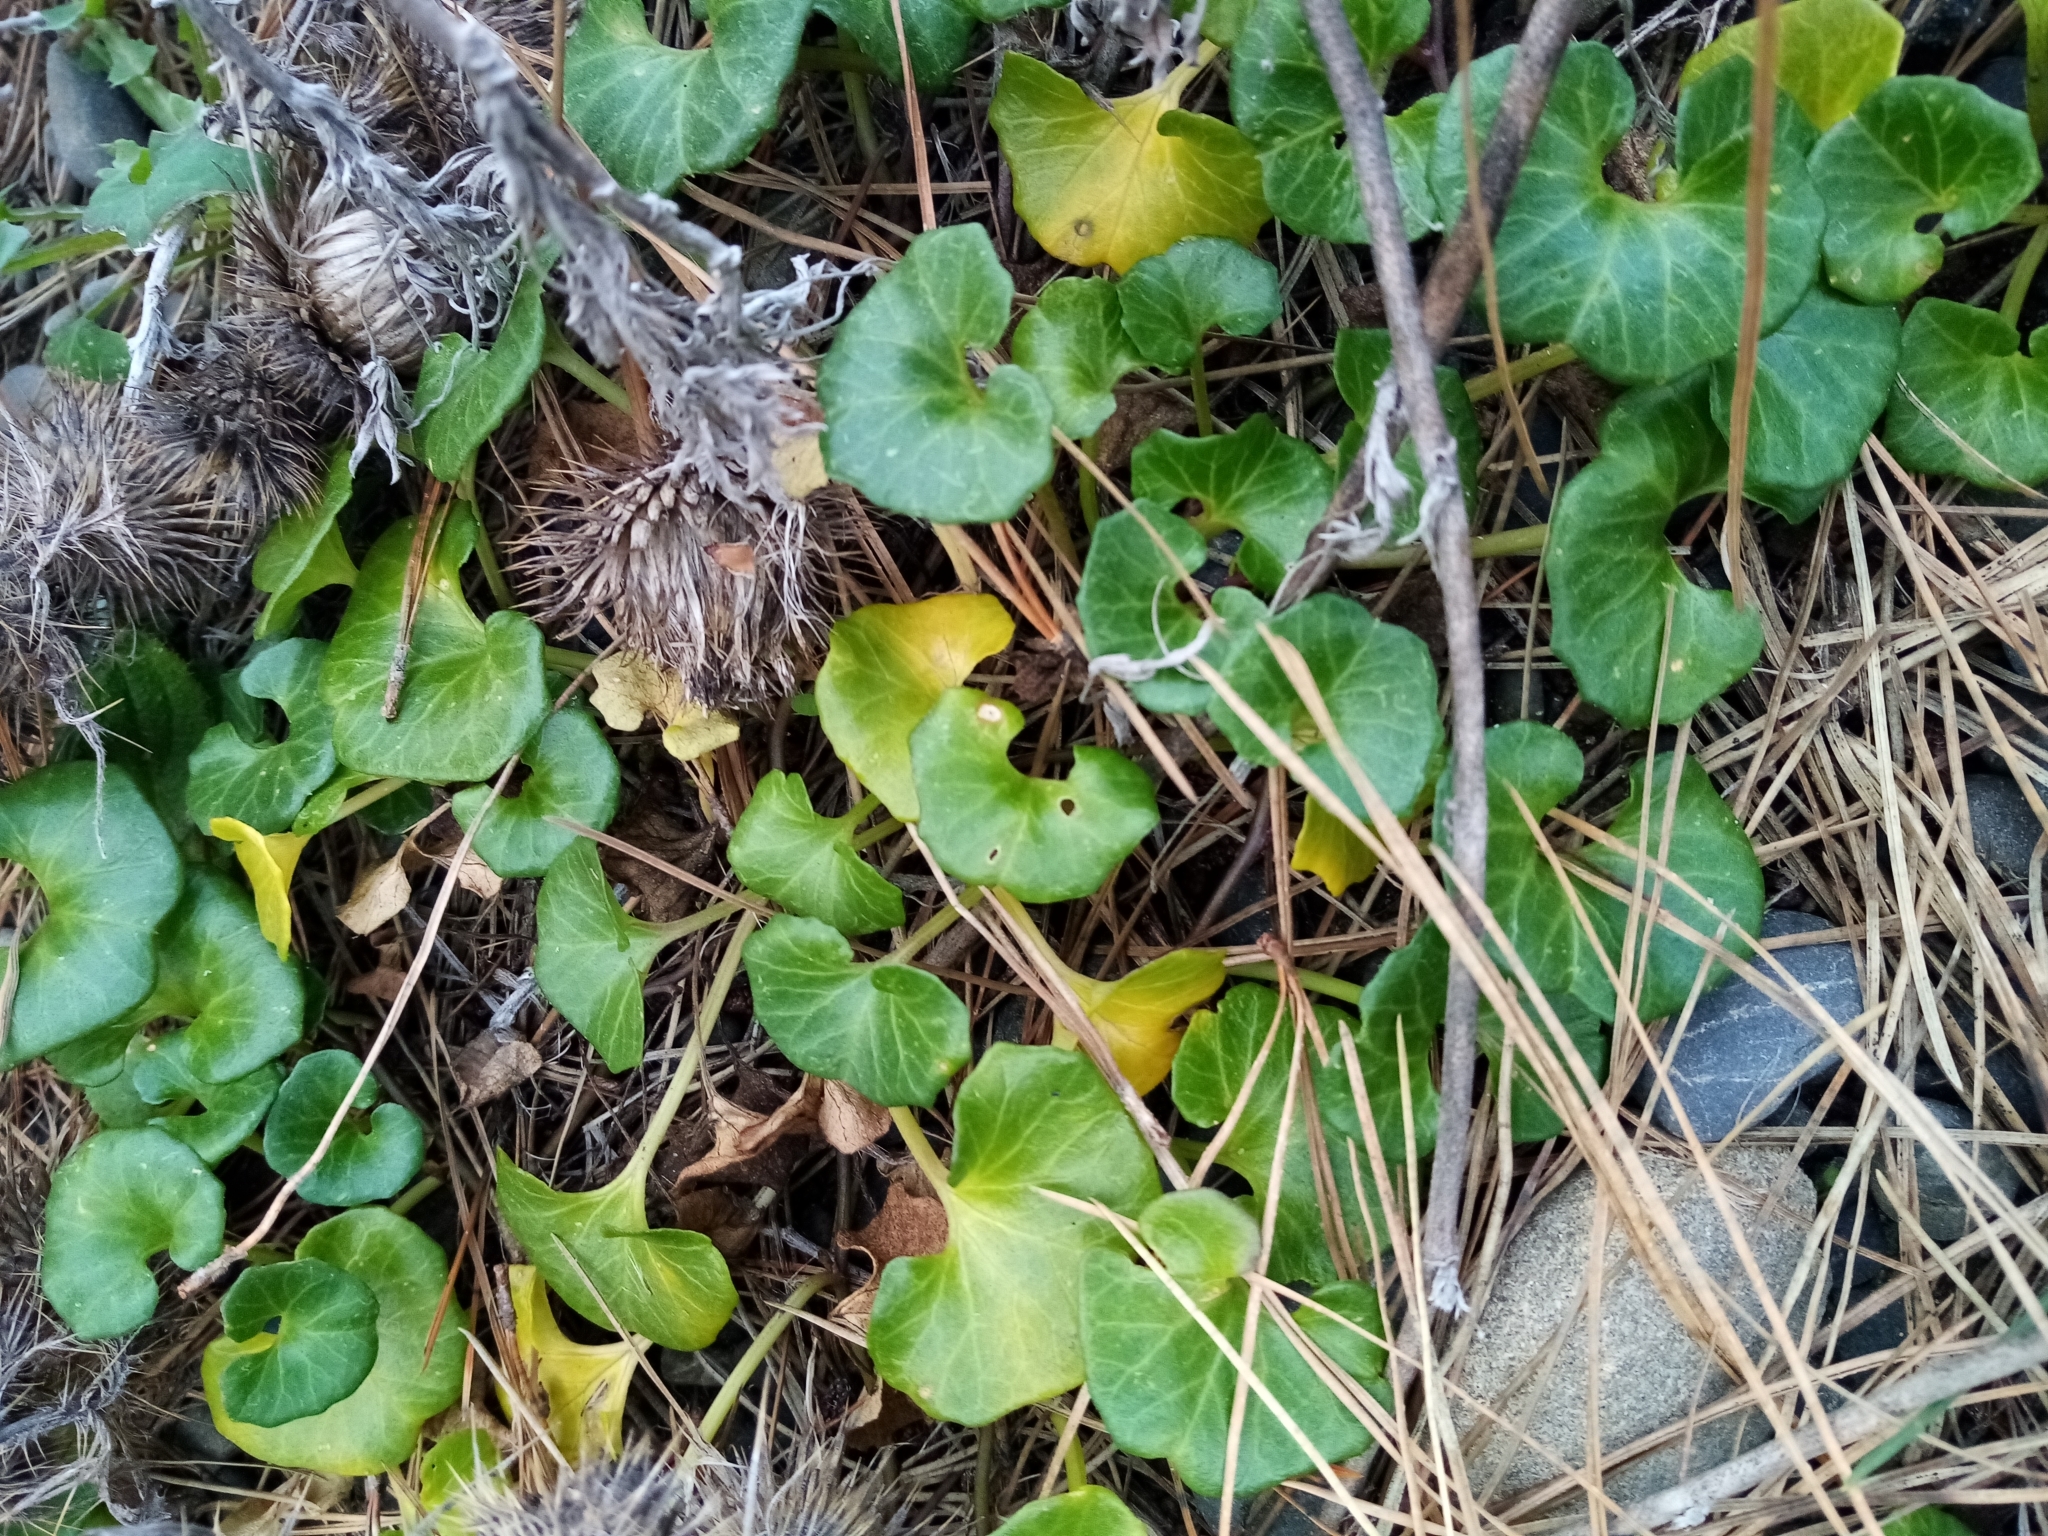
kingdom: Plantae
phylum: Tracheophyta
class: Magnoliopsida
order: Solanales
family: Convolvulaceae
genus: Calystegia
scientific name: Calystegia soldanella
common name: Sea bindweed
